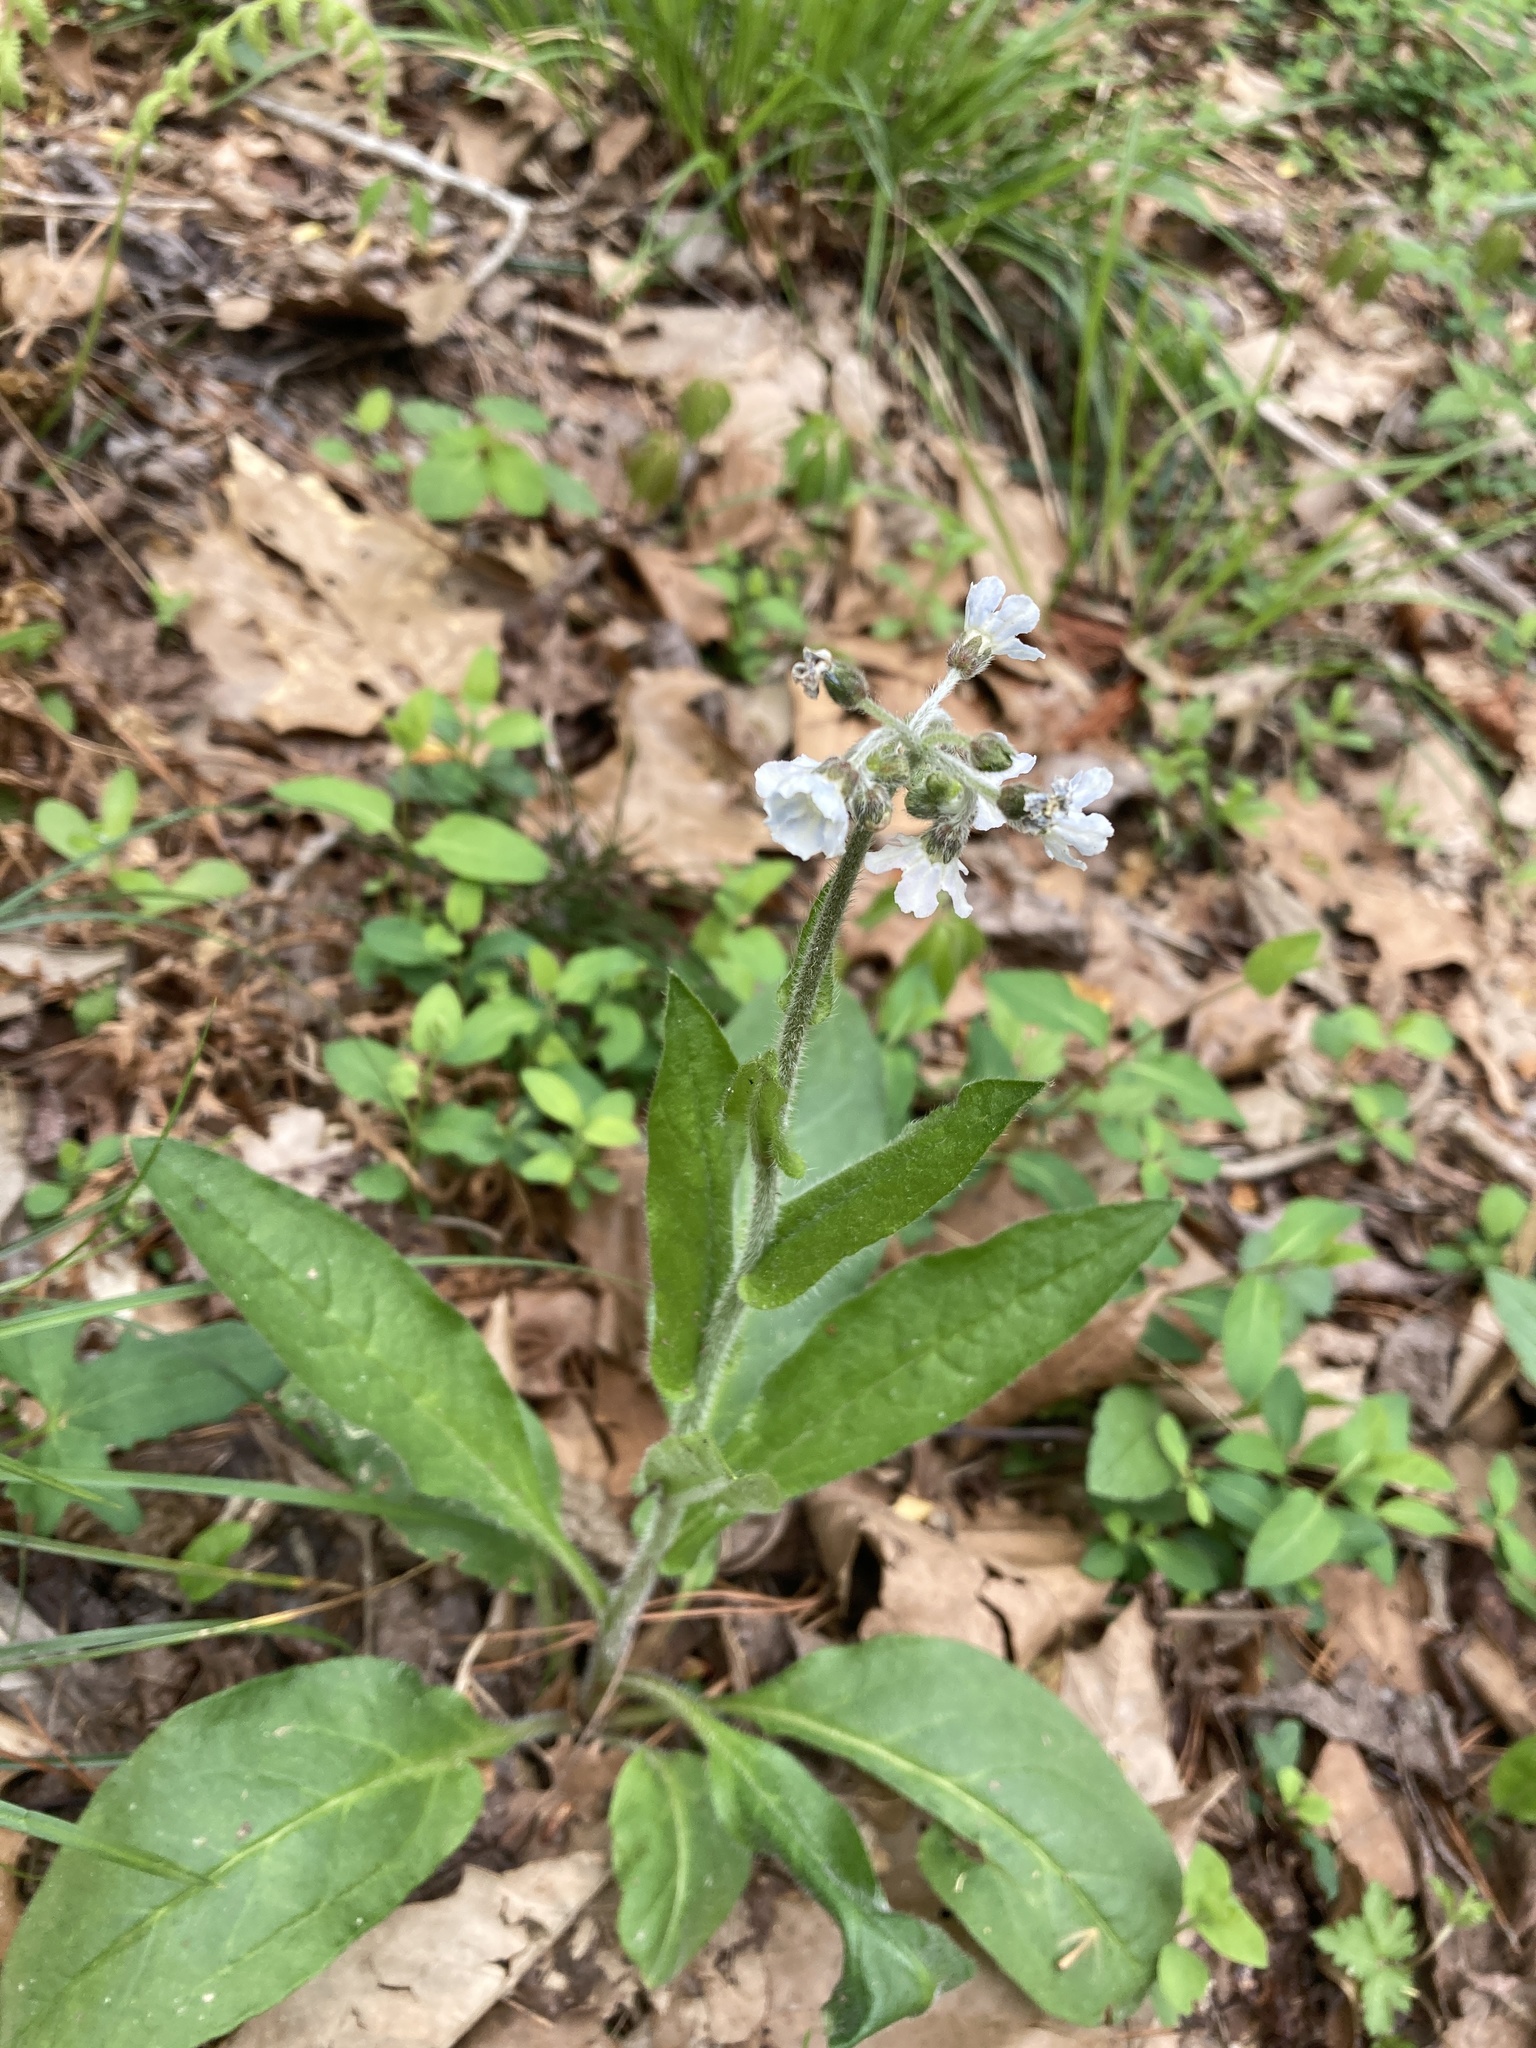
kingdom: Plantae
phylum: Tracheophyta
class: Magnoliopsida
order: Boraginales
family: Boraginaceae
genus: Andersonglossum
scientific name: Andersonglossum virginianum
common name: Wild comfrey
